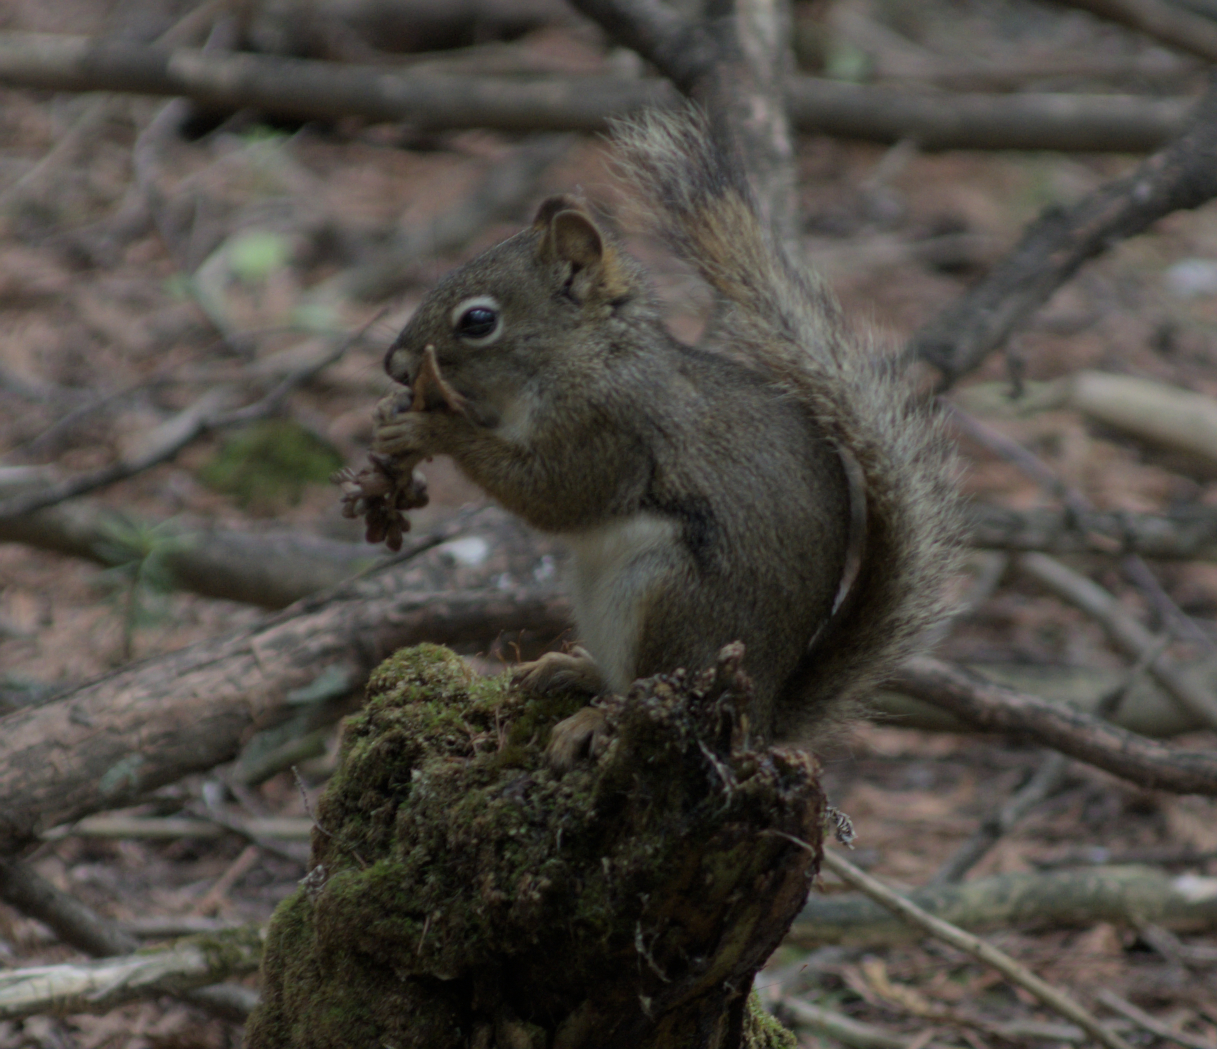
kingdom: Animalia
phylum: Chordata
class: Mammalia
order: Rodentia
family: Sciuridae
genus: Tamiasciurus
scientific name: Tamiasciurus hudsonicus
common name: Red squirrel
